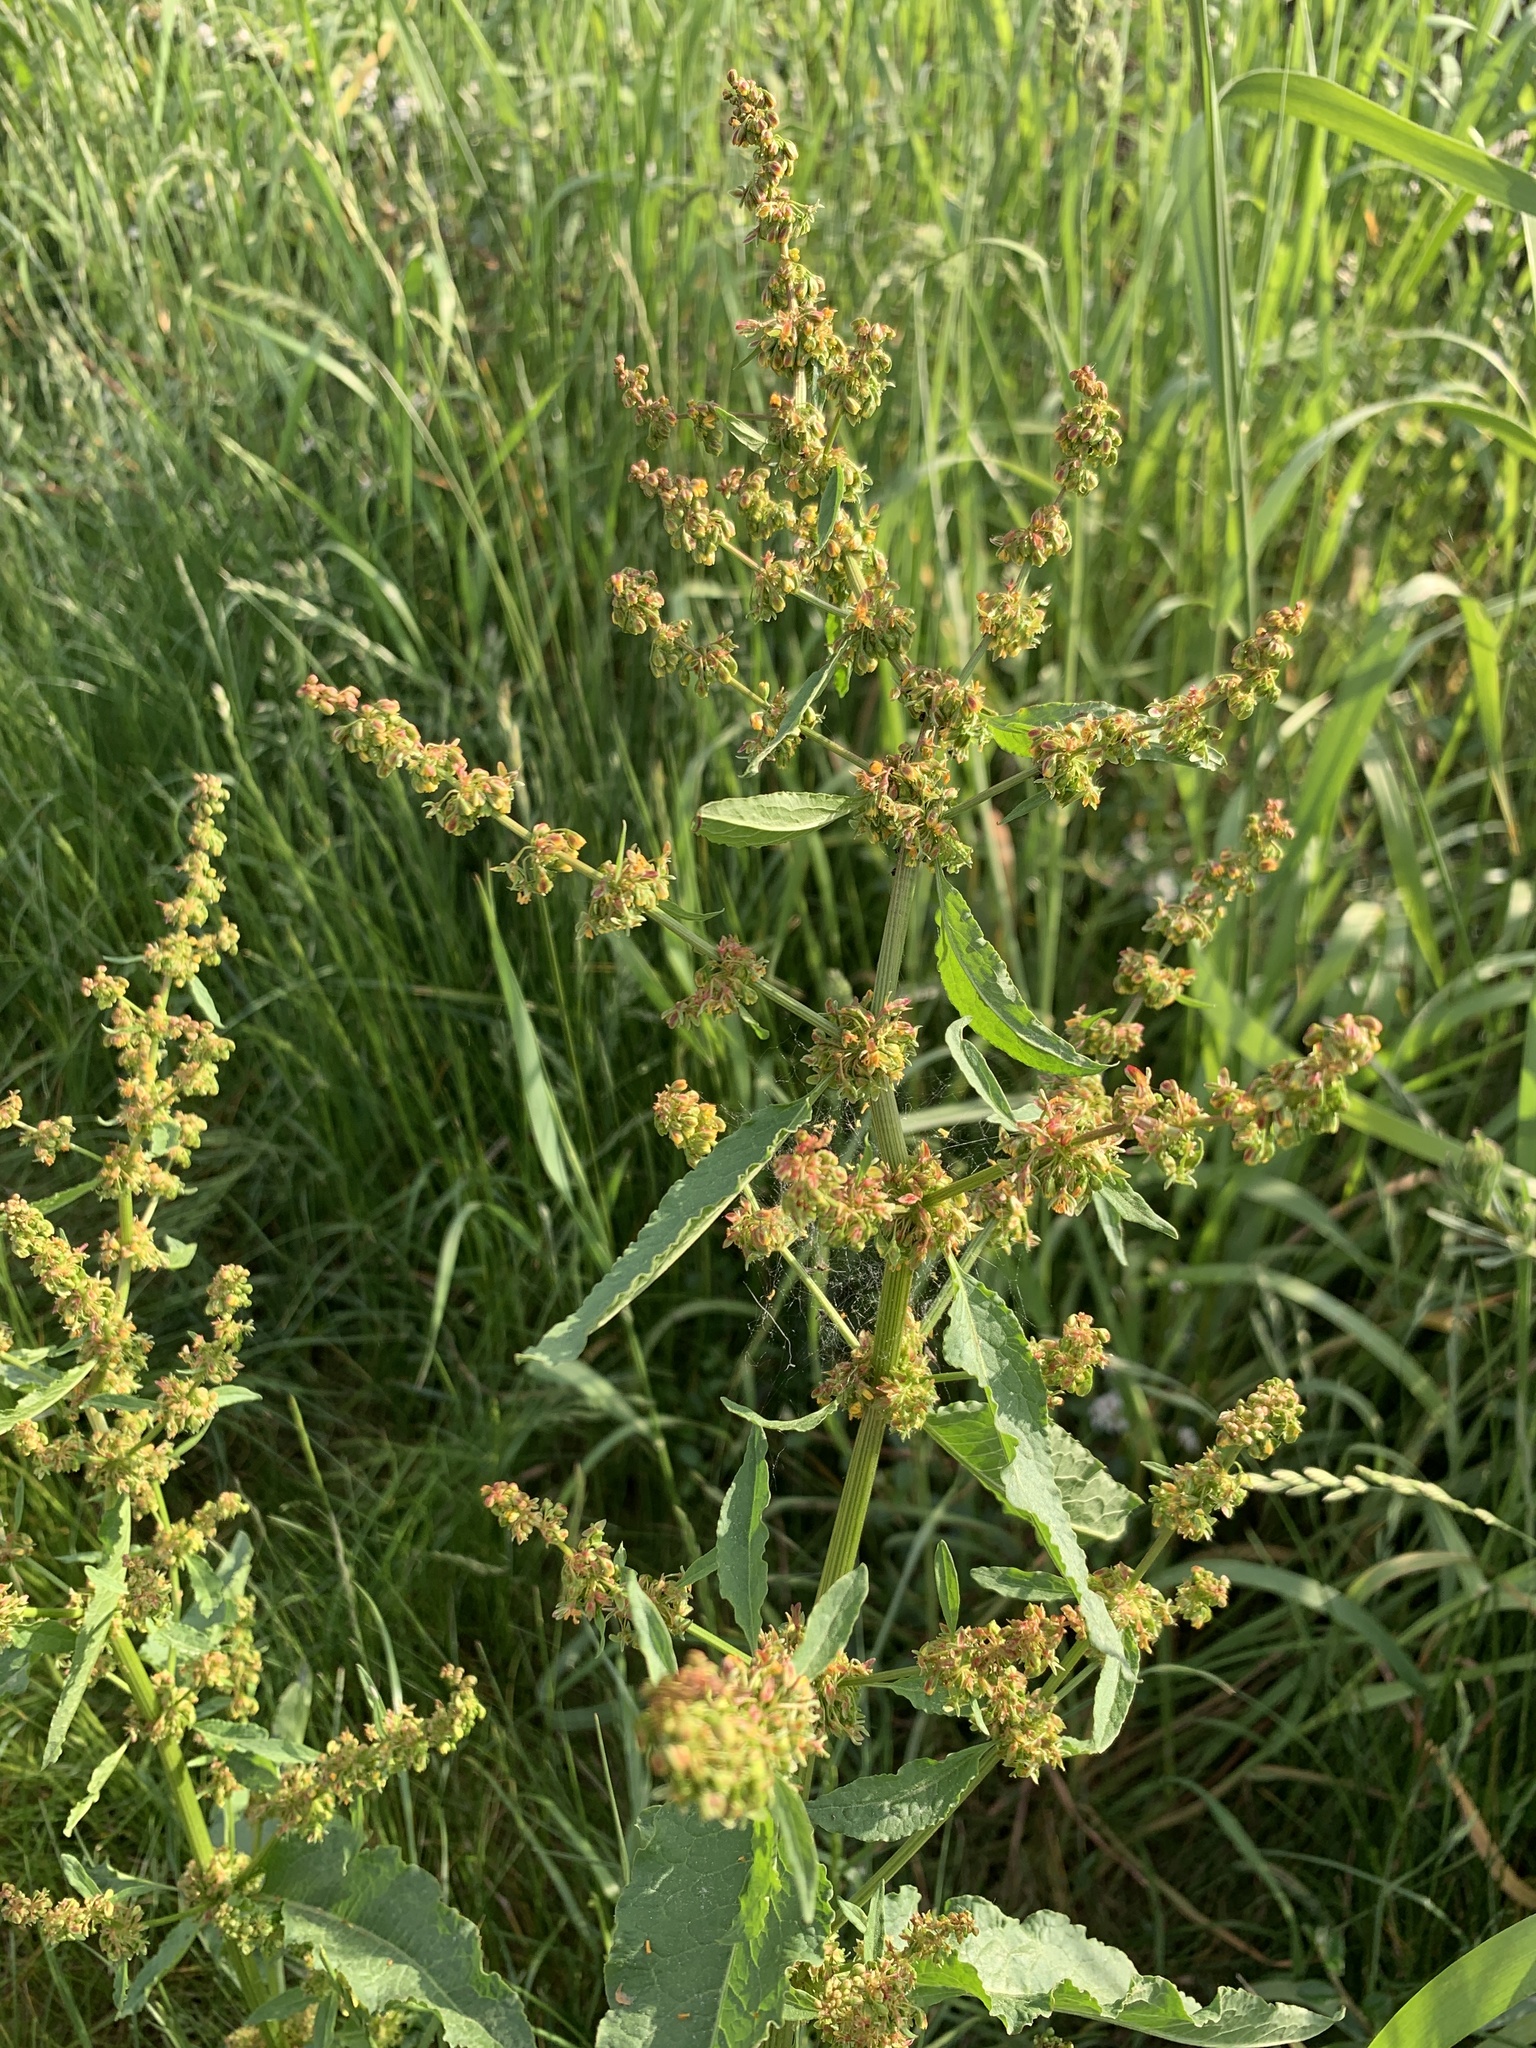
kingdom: Plantae
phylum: Tracheophyta
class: Magnoliopsida
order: Caryophyllales
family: Polygonaceae
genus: Rumex
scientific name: Rumex obtusifolius
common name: Bitter dock
